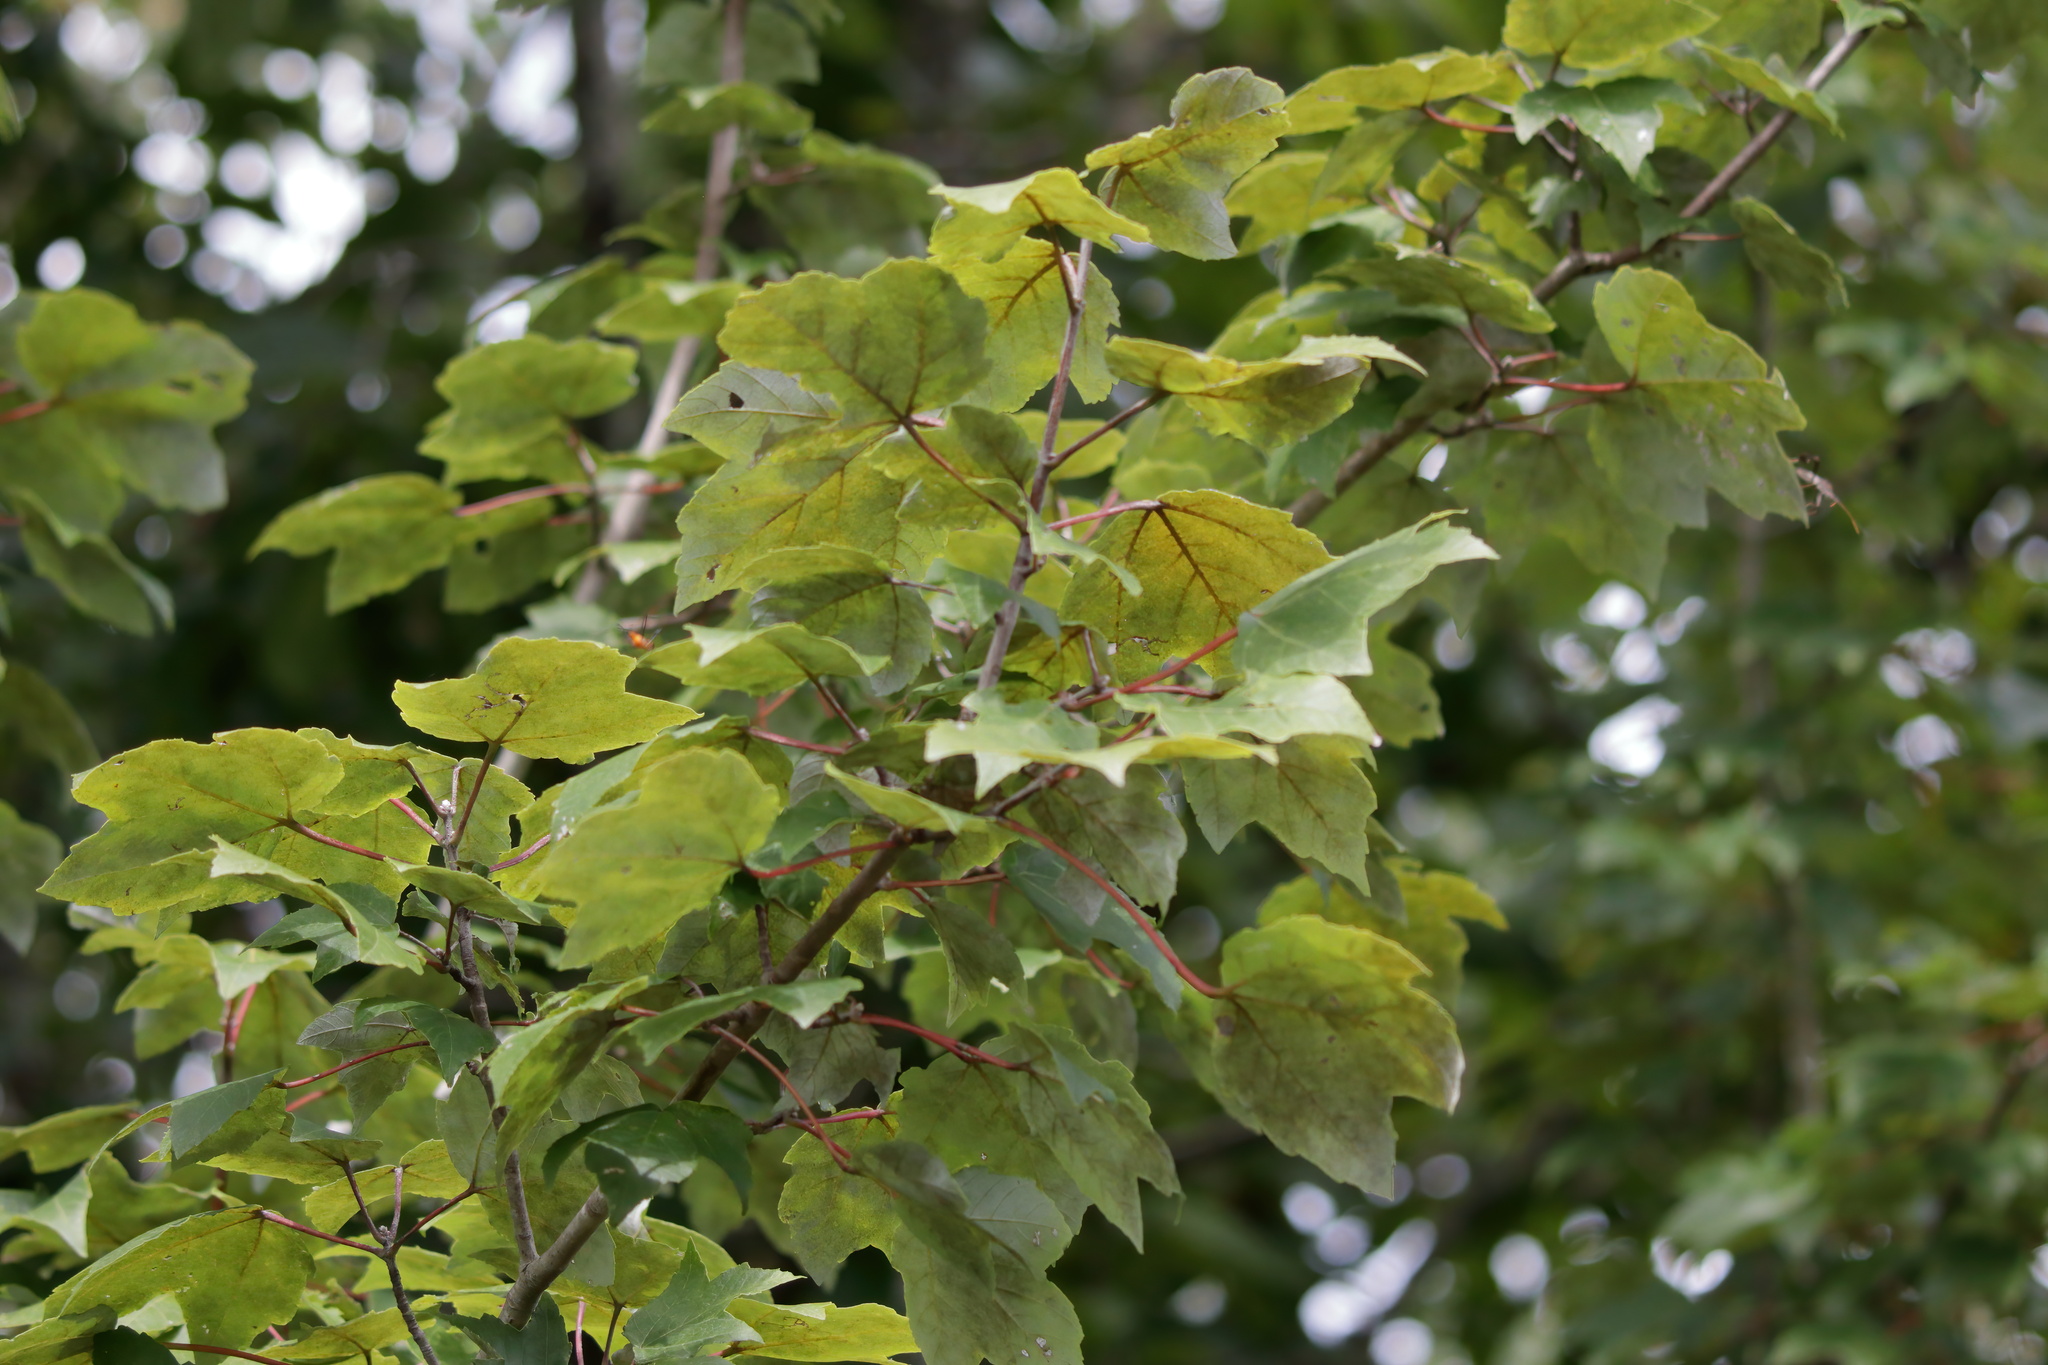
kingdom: Plantae
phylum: Tracheophyta
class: Magnoliopsida
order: Sapindales
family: Sapindaceae
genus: Acer
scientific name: Acer rubrum
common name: Red maple
